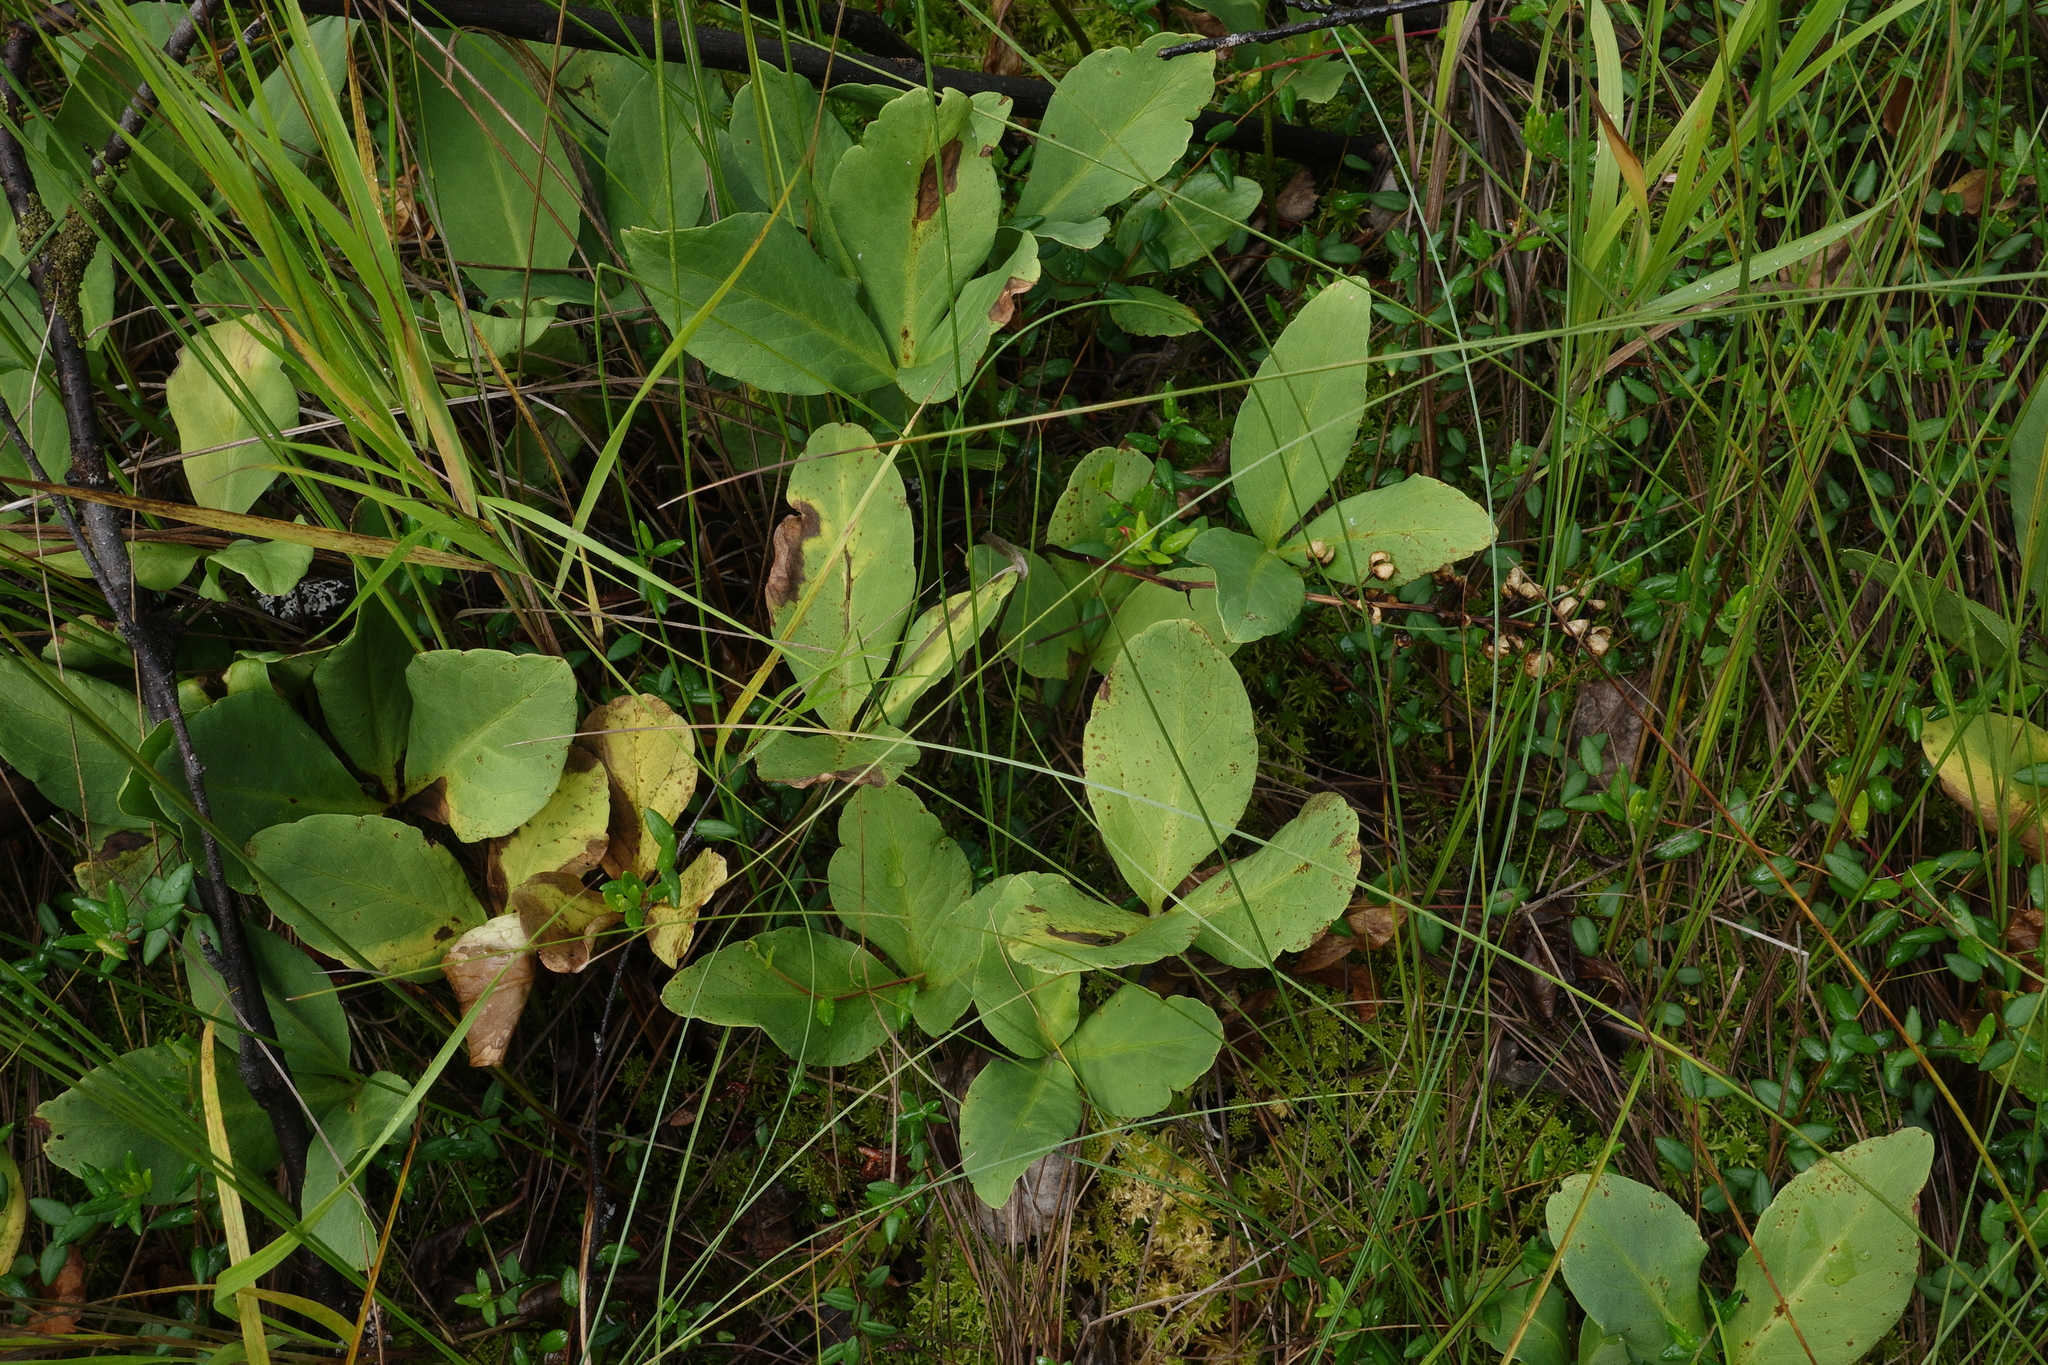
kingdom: Plantae
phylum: Tracheophyta
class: Magnoliopsida
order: Asterales
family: Menyanthaceae
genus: Menyanthes
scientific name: Menyanthes trifoliata
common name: Bogbean
